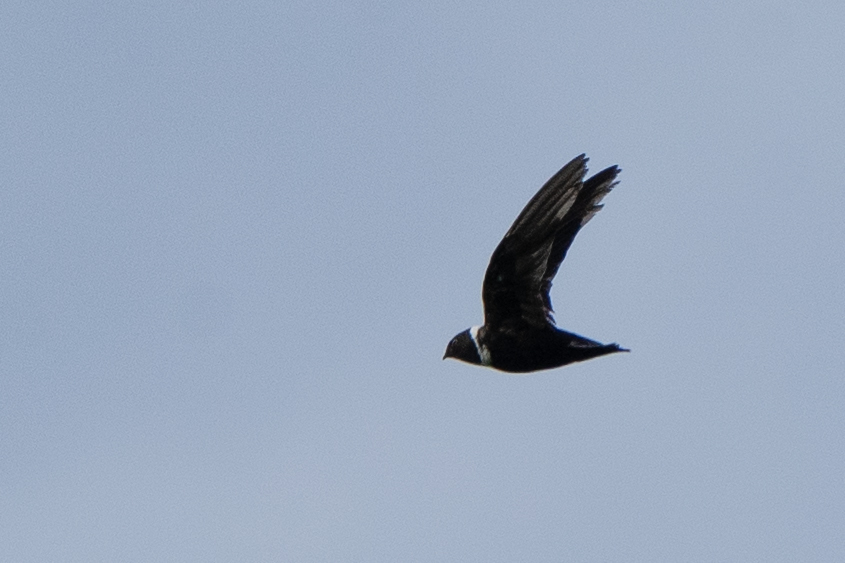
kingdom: Animalia
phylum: Chordata
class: Aves
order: Apodiformes
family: Apodidae
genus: Streptoprocne
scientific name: Streptoprocne zonaris
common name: White-collared swift
